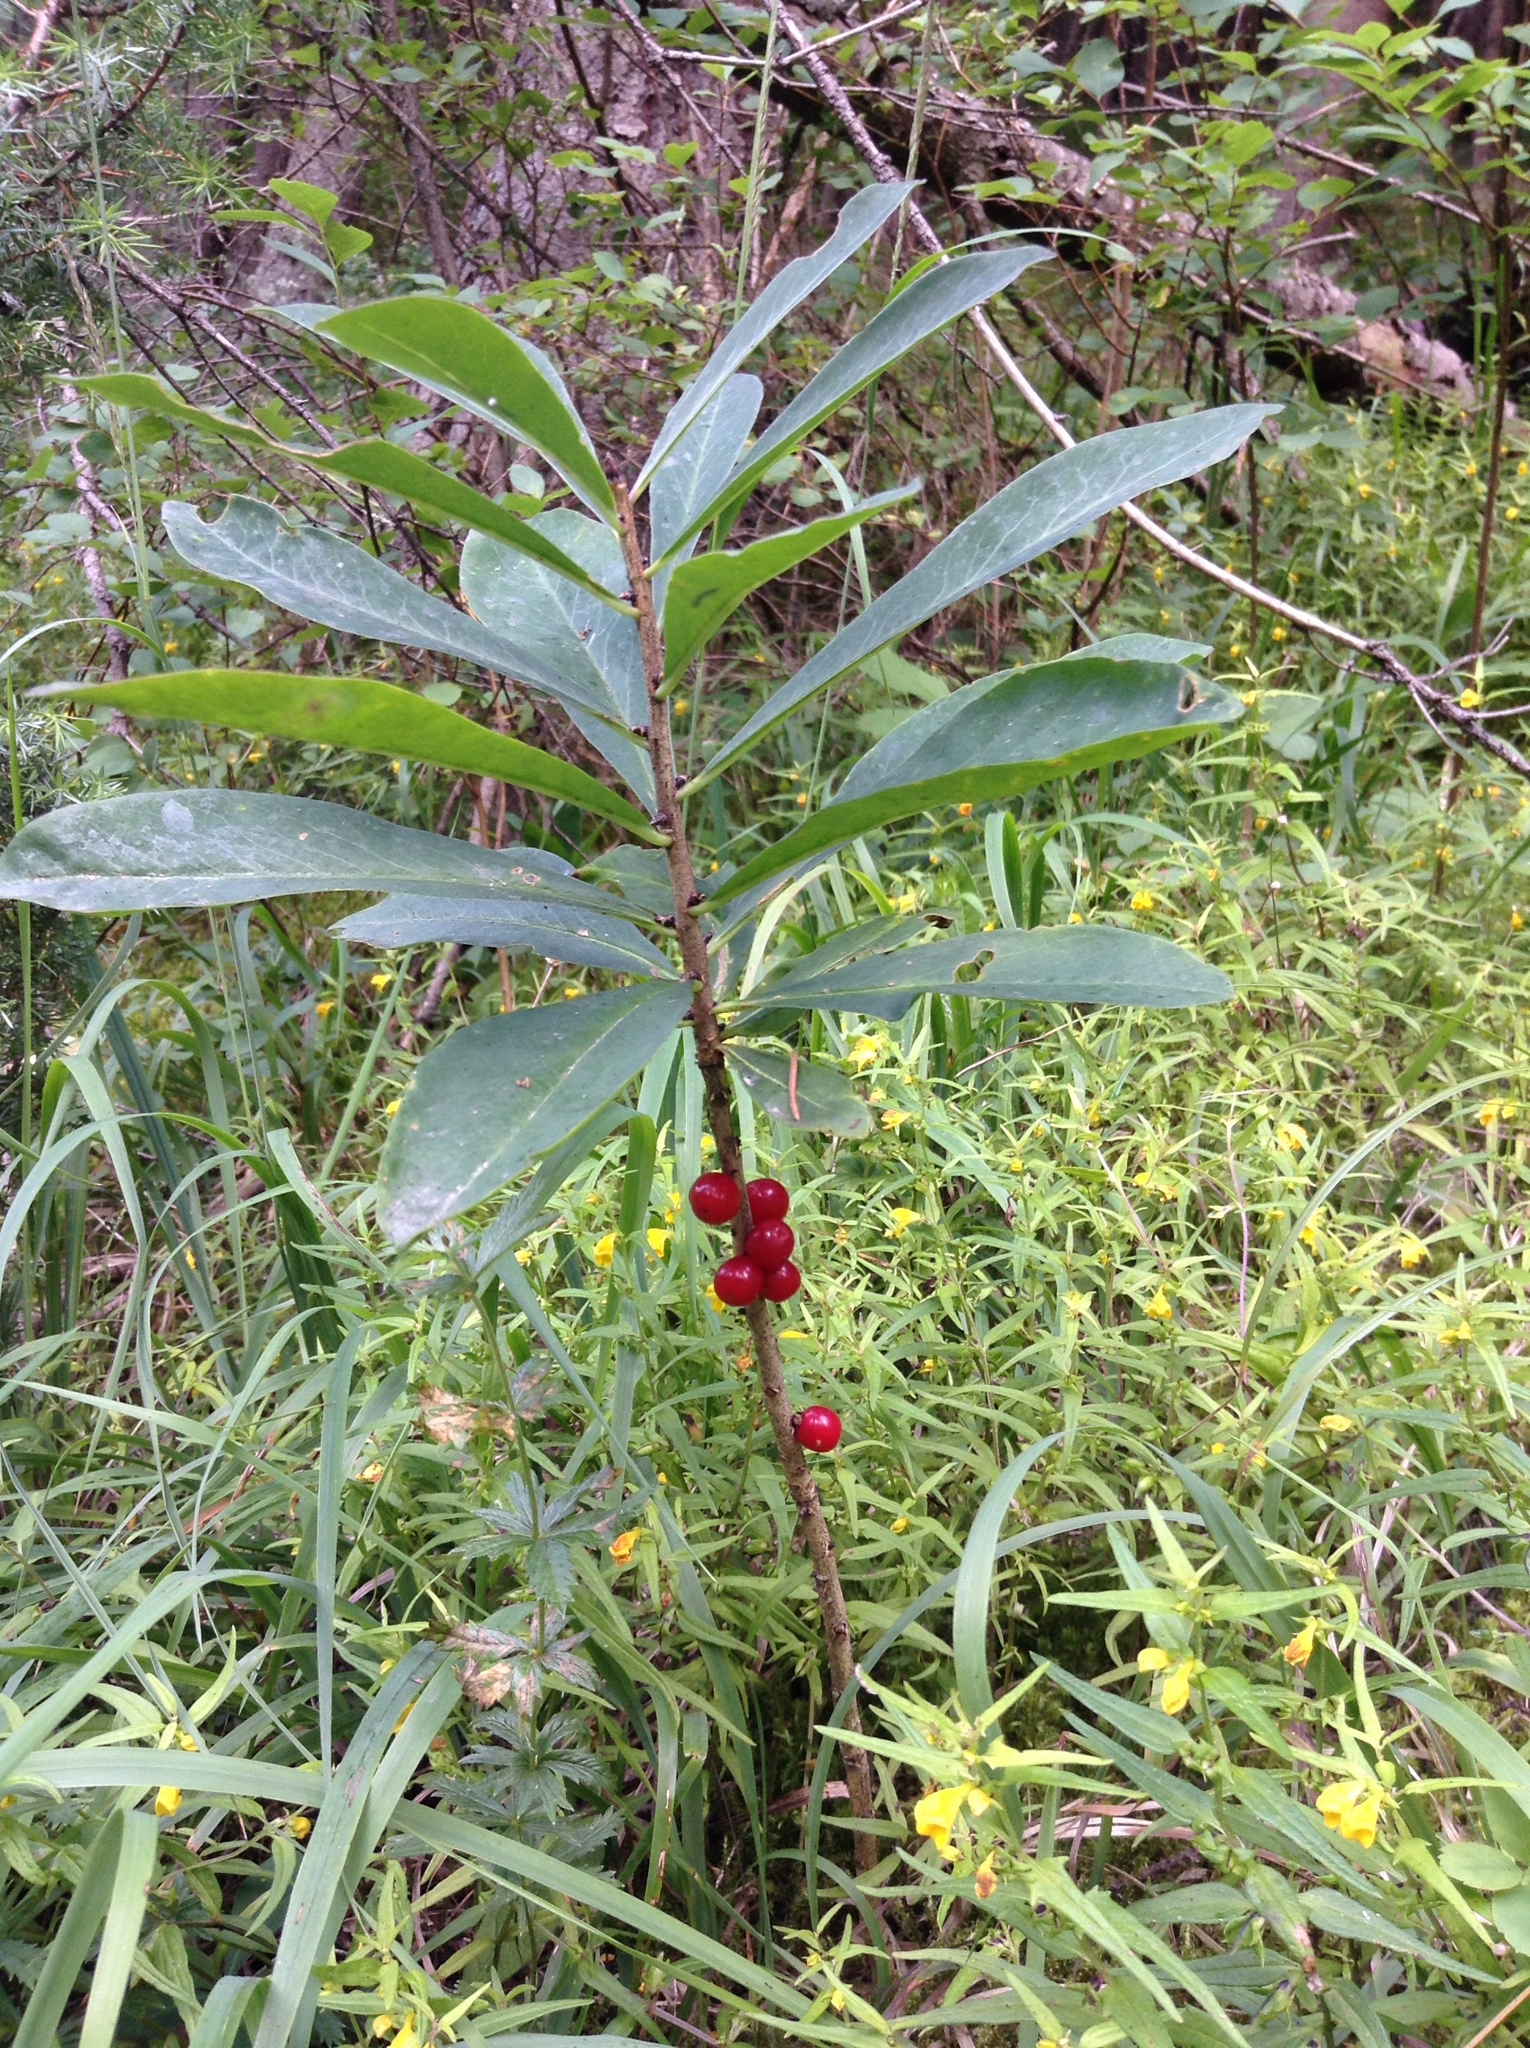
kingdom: Plantae
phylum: Tracheophyta
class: Magnoliopsida
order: Malvales
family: Thymelaeaceae
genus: Daphne
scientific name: Daphne mezereum
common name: Mezereon
